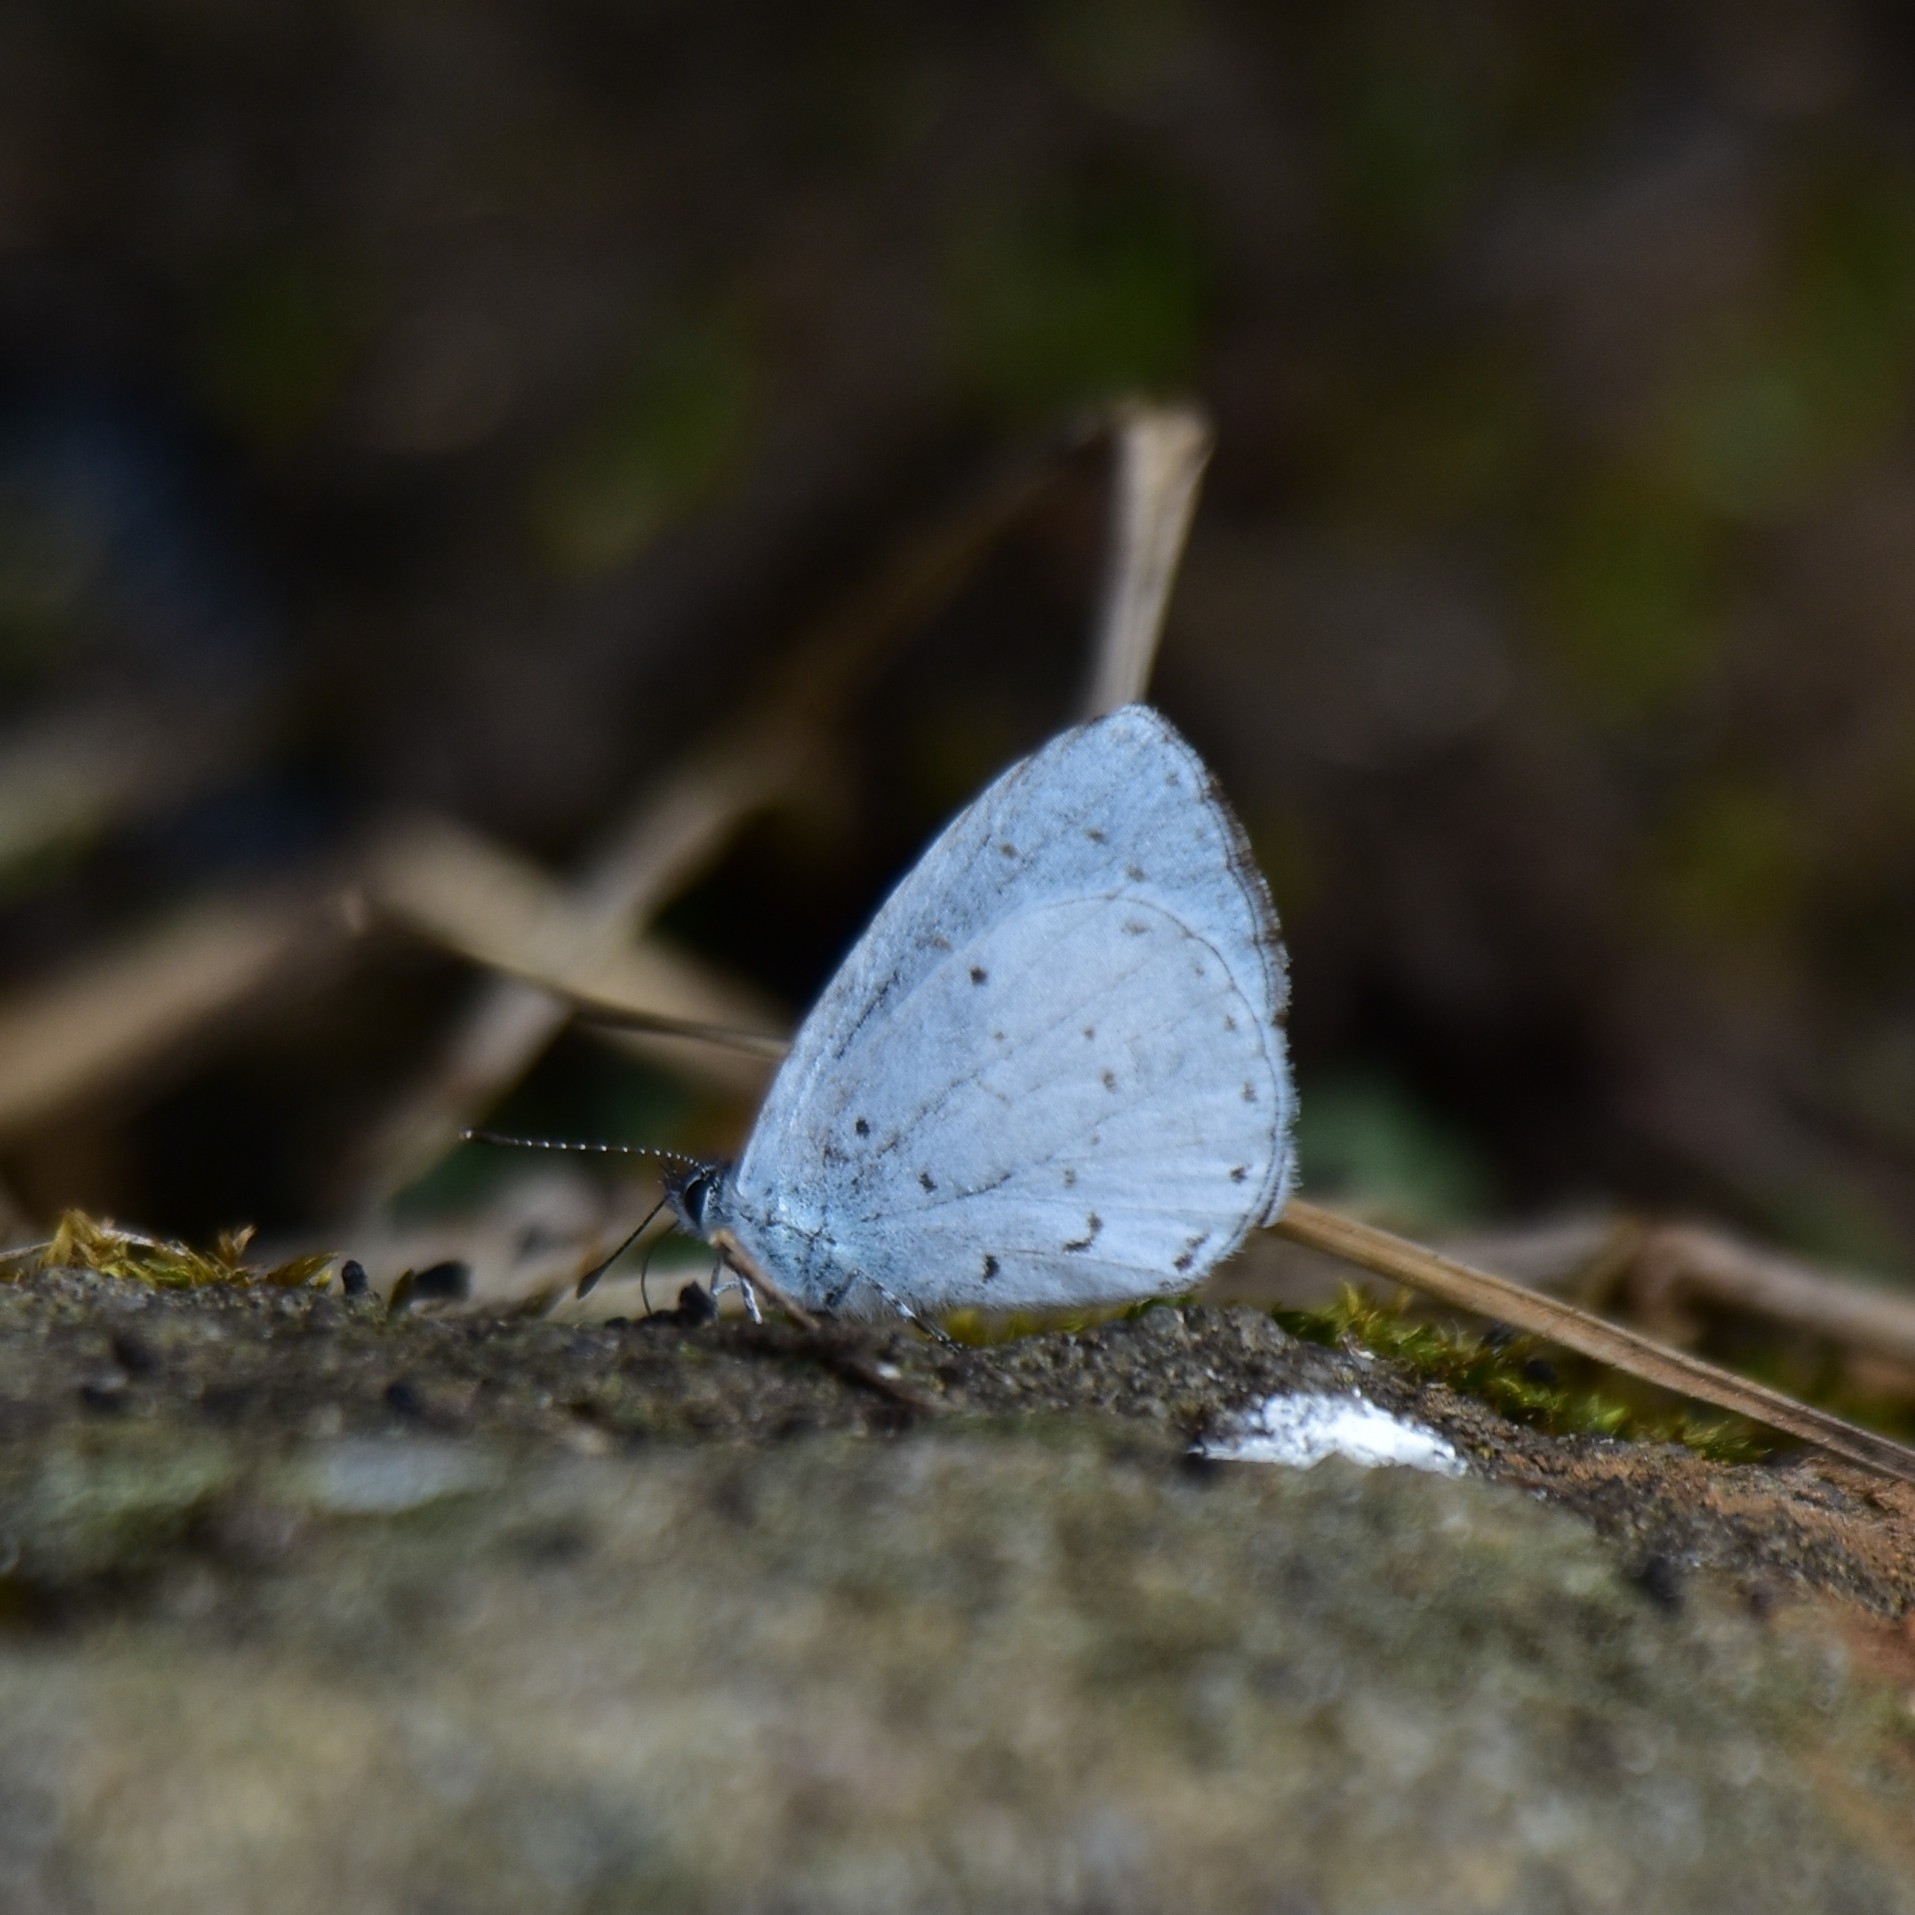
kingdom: Animalia
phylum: Arthropoda
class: Insecta
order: Lepidoptera
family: Lycaenidae
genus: Udara
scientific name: Udara akasa
